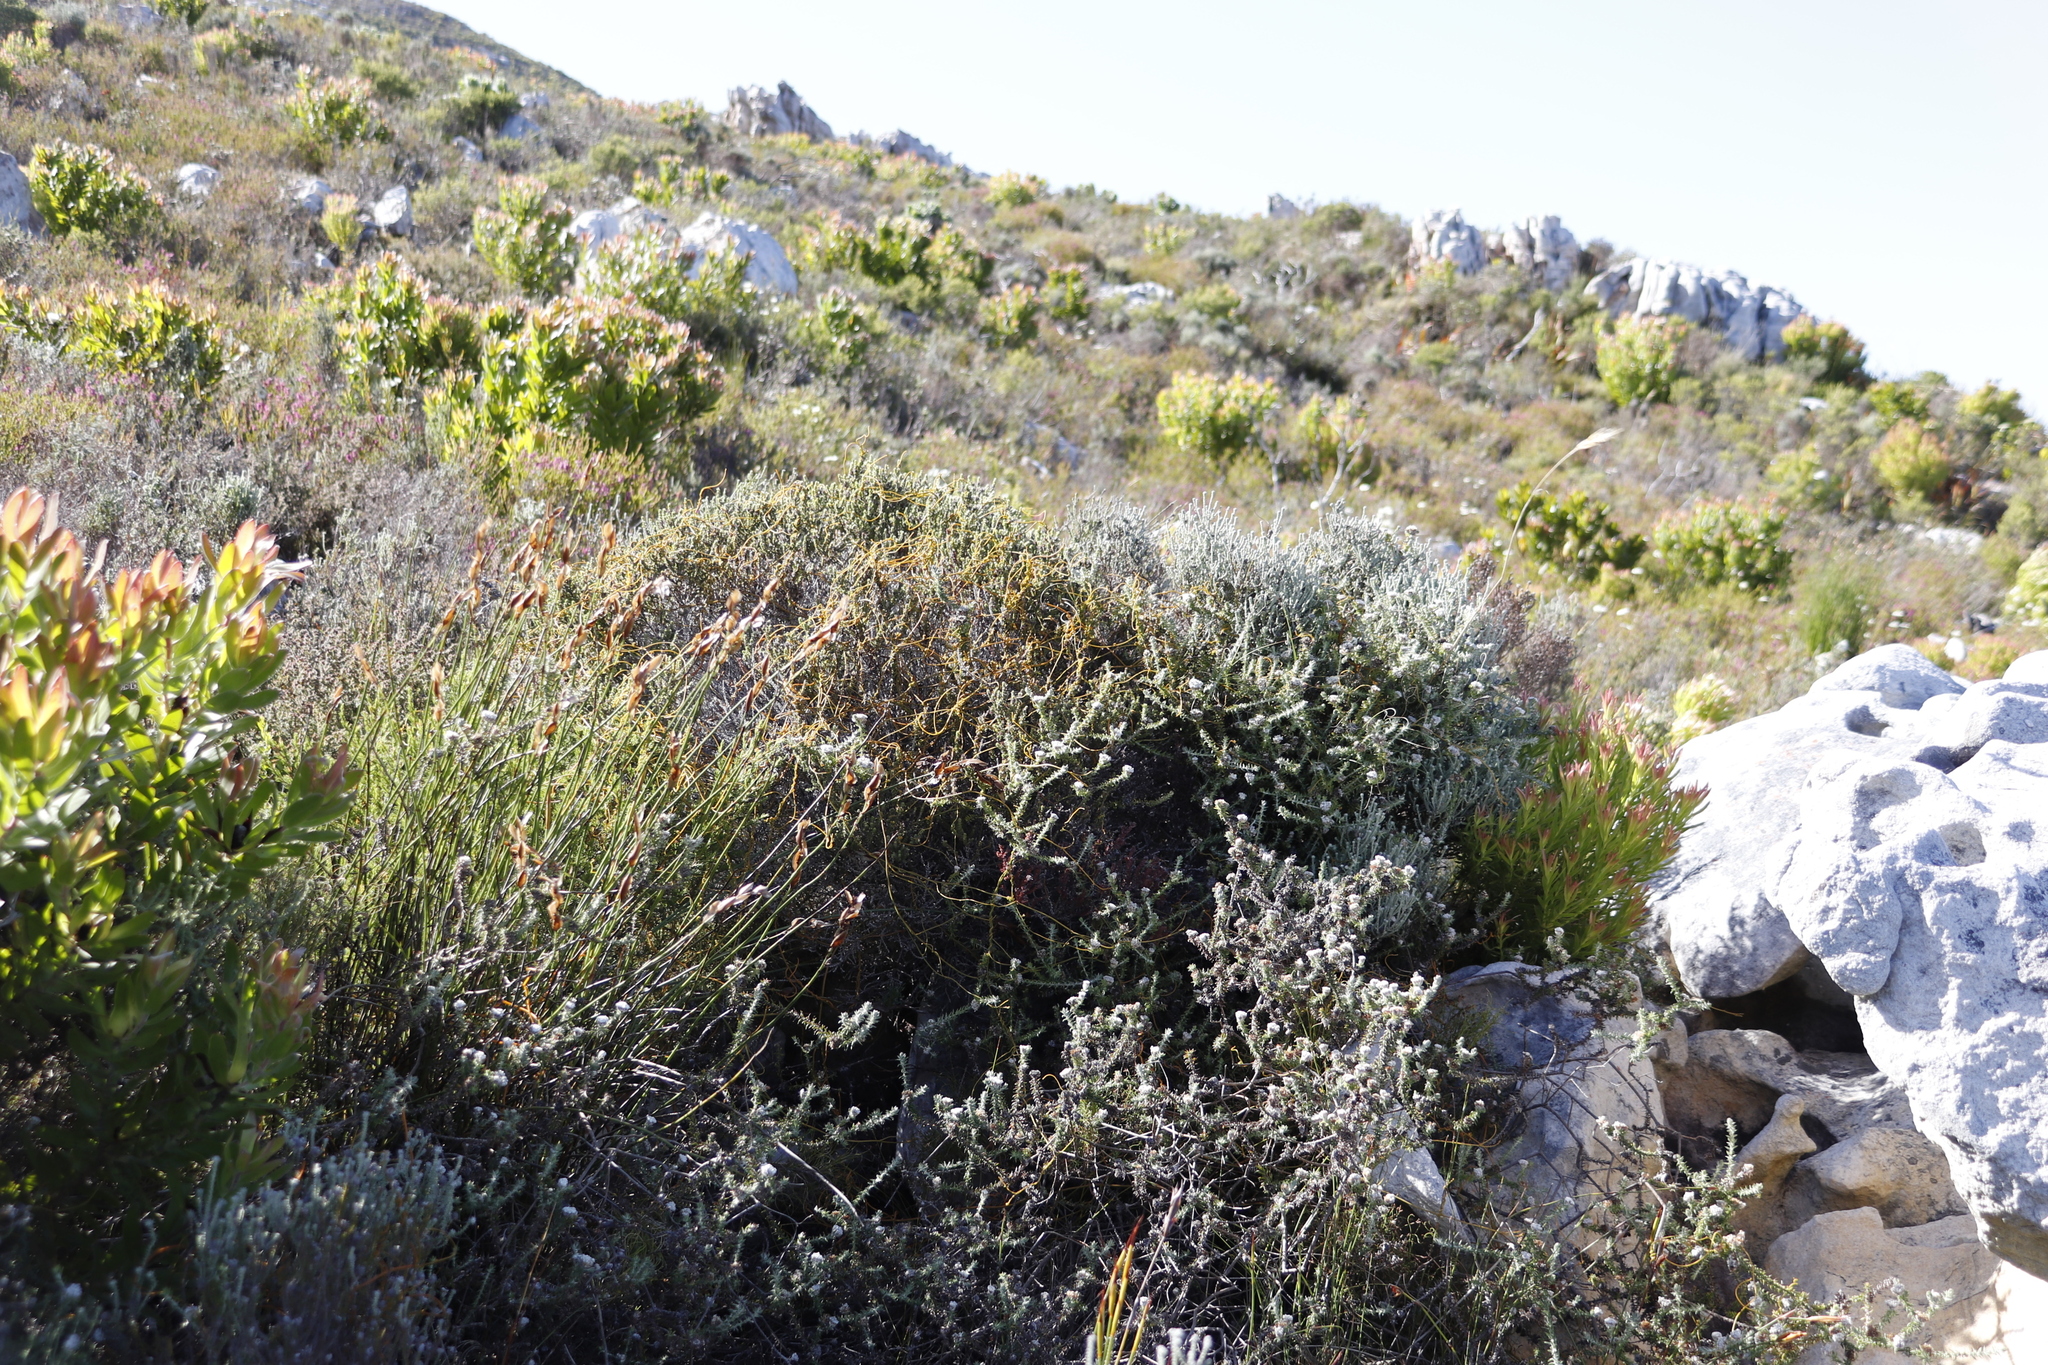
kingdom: Plantae
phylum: Tracheophyta
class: Magnoliopsida
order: Laurales
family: Lauraceae
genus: Cassytha
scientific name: Cassytha ciliolata
